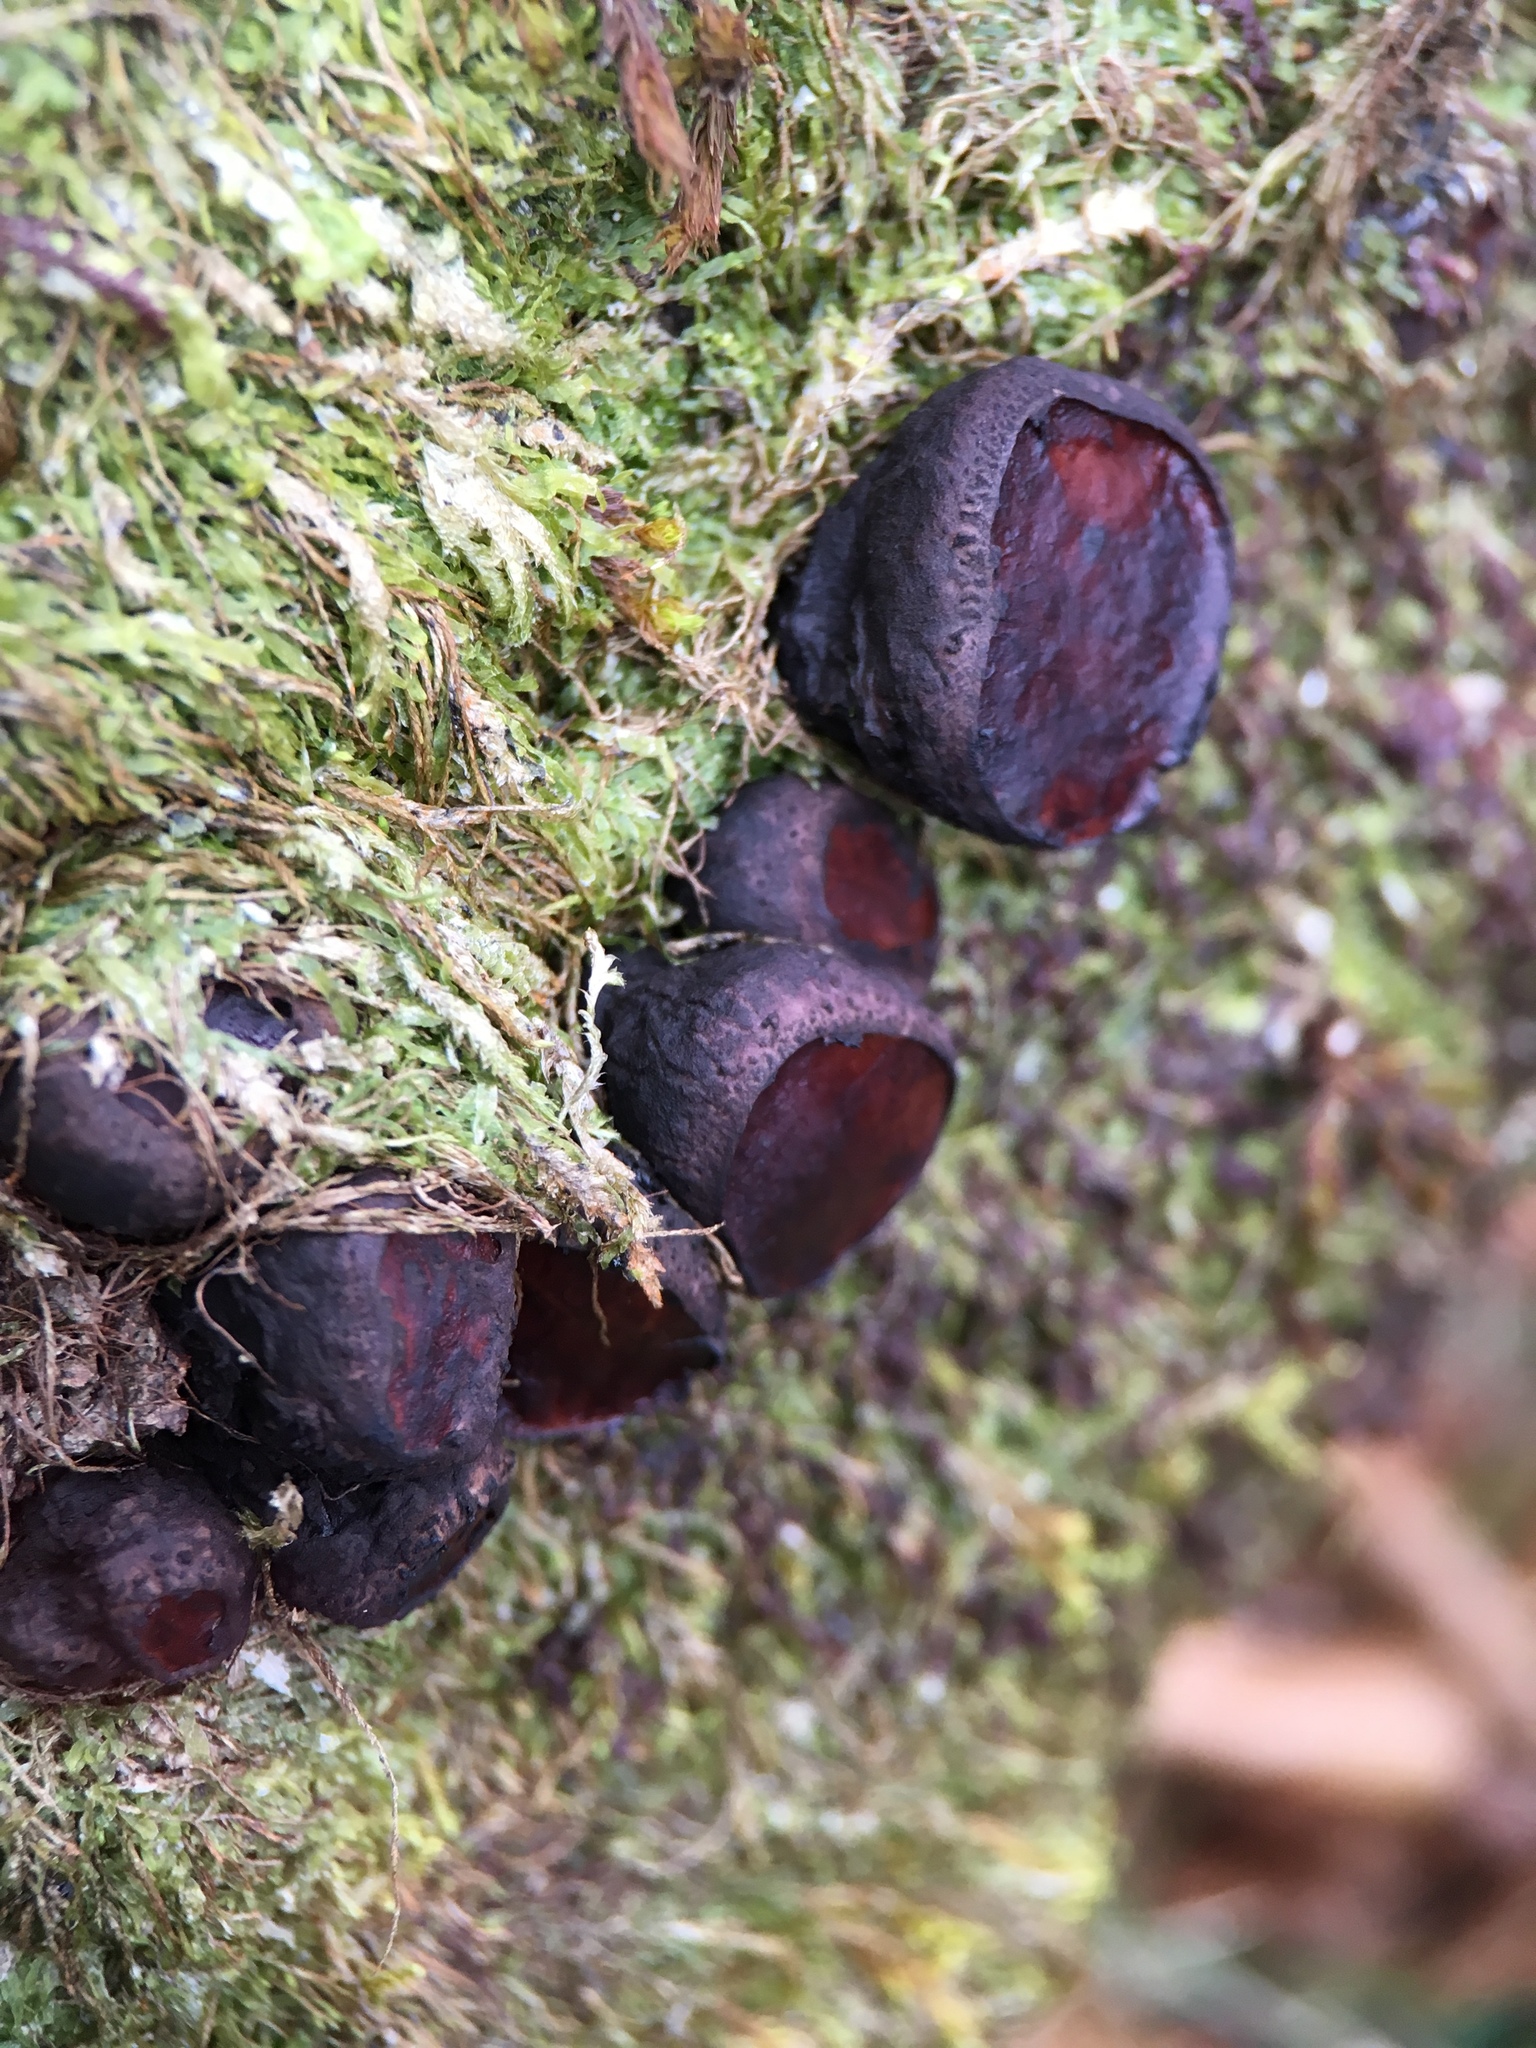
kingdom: Fungi
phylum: Ascomycota
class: Leotiomycetes
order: Phacidiales
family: Phacidiaceae
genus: Bulgaria
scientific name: Bulgaria inquinans
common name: Black bulgar
